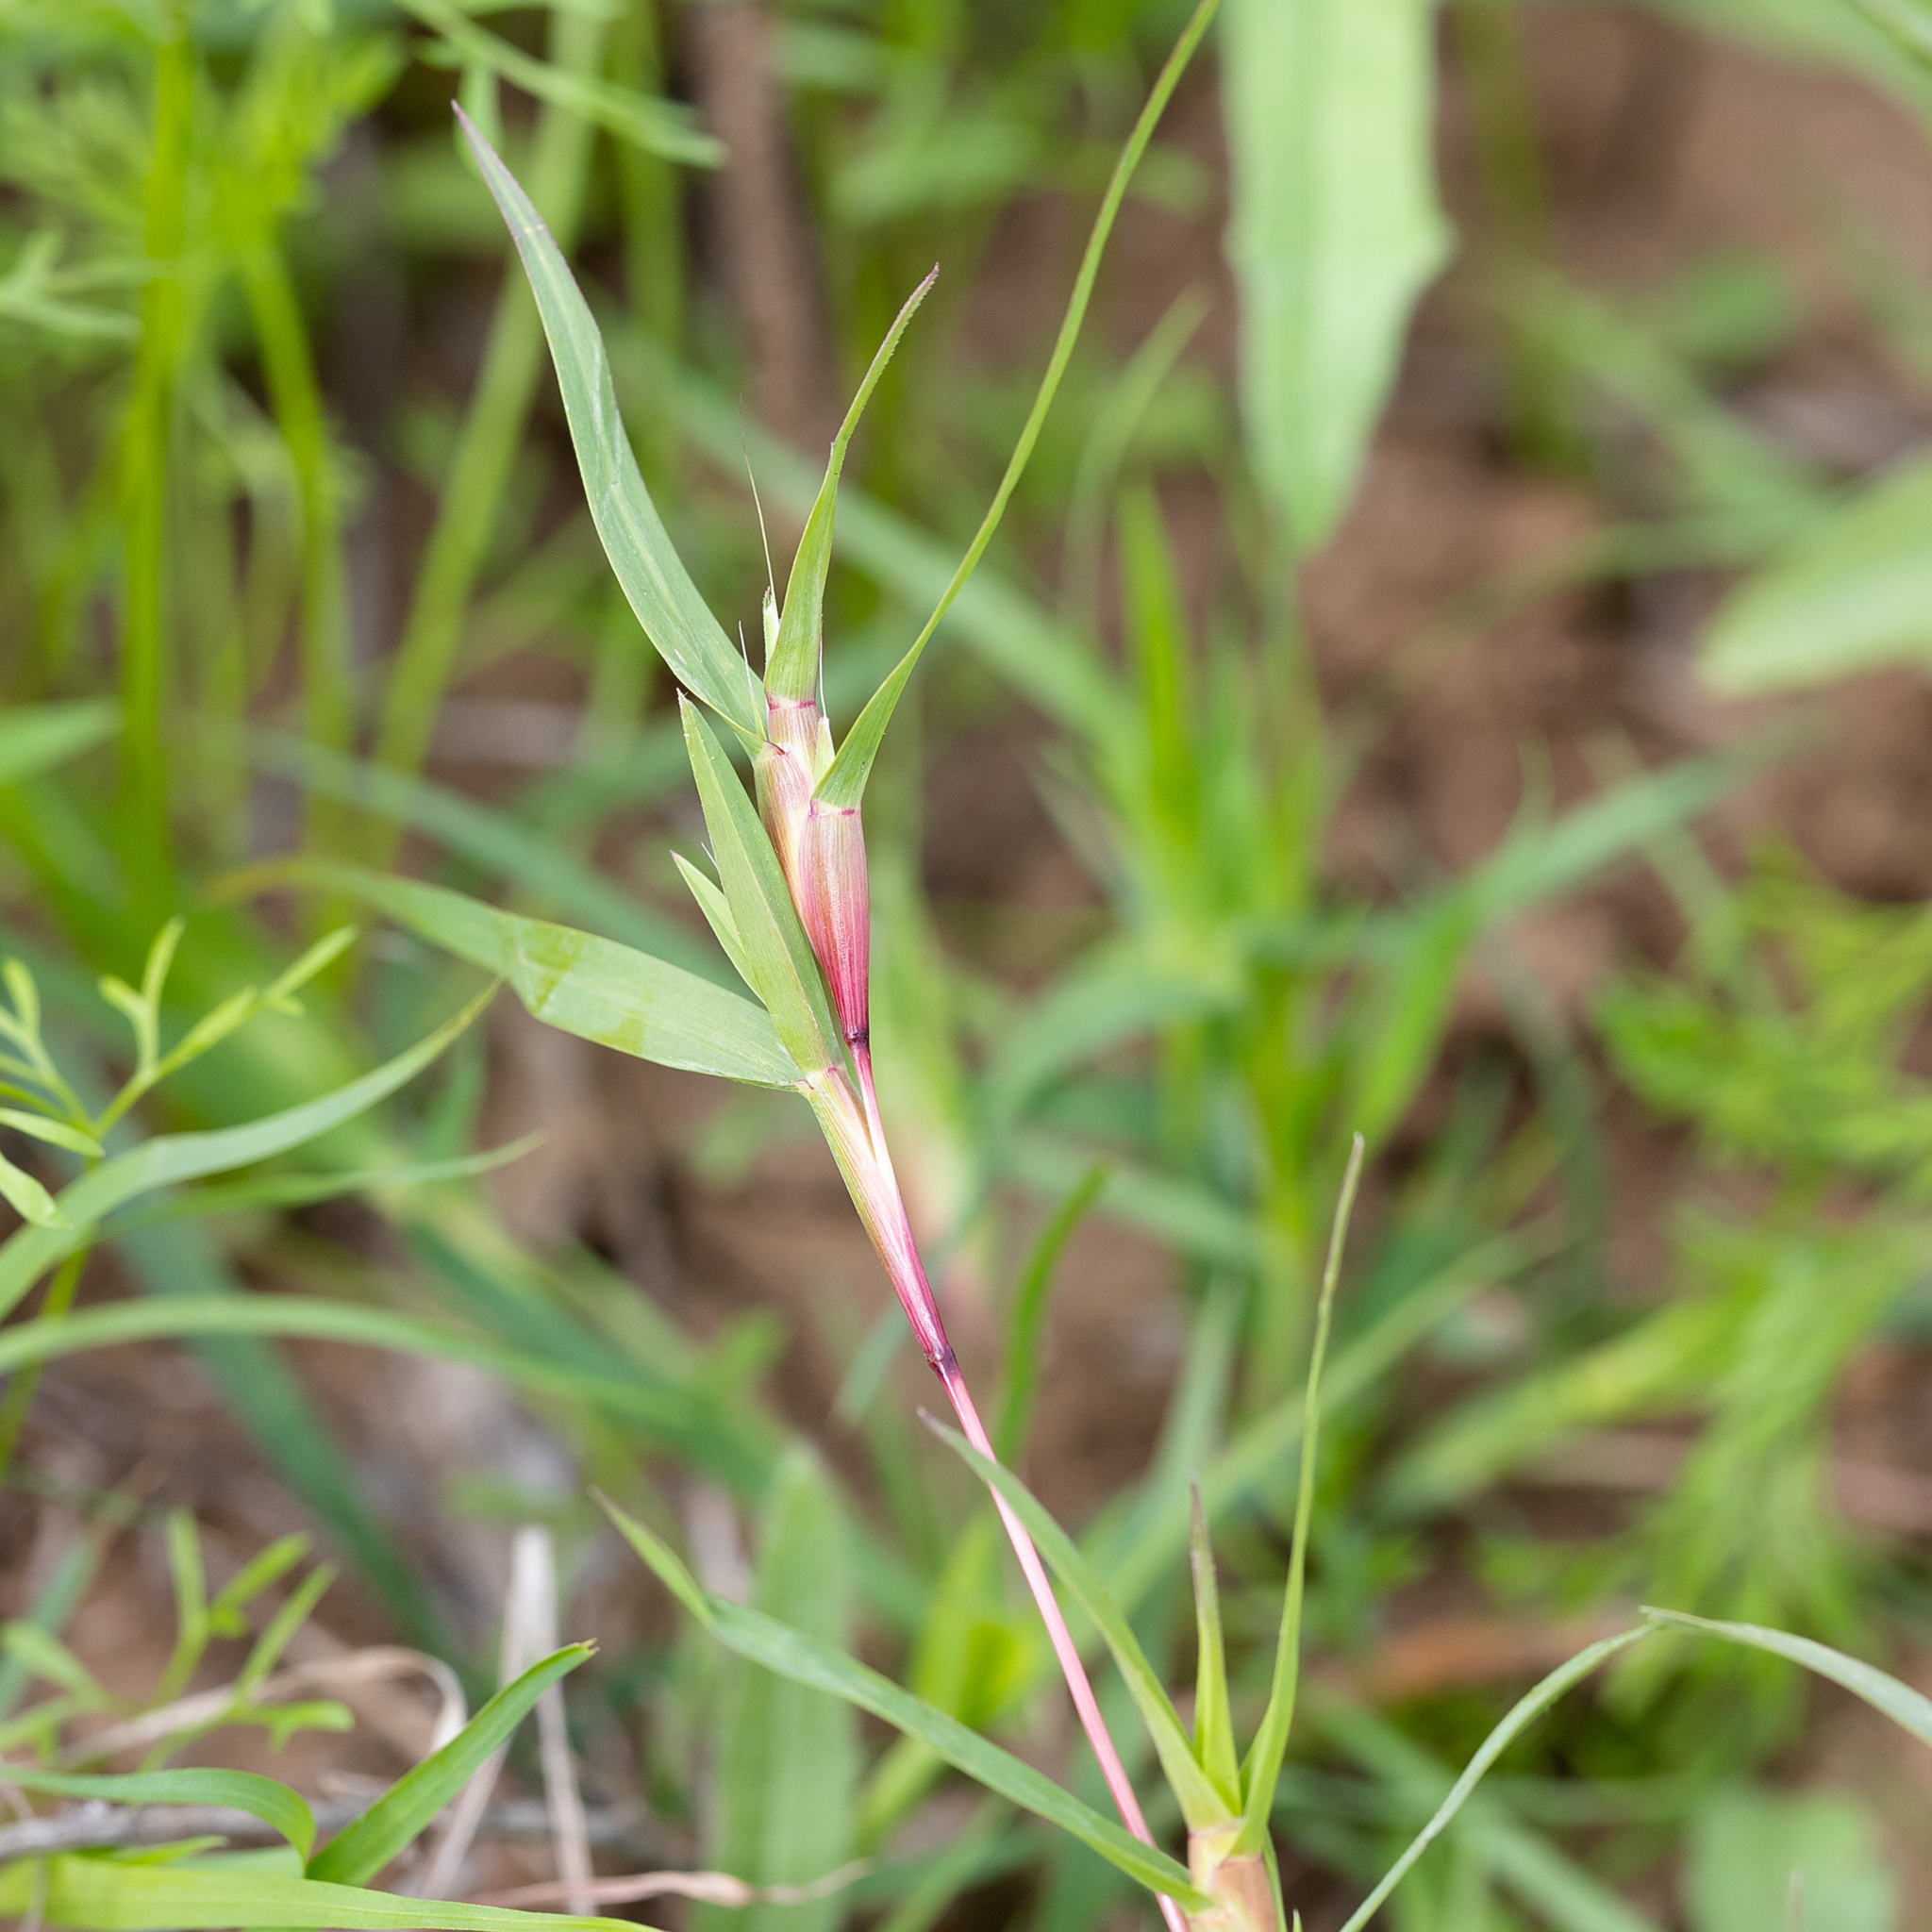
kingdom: Plantae
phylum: Tracheophyta
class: Liliopsida
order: Poales
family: Poaceae
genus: Iseilema
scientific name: Iseilema vaginiflorum
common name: Red flinders grass
